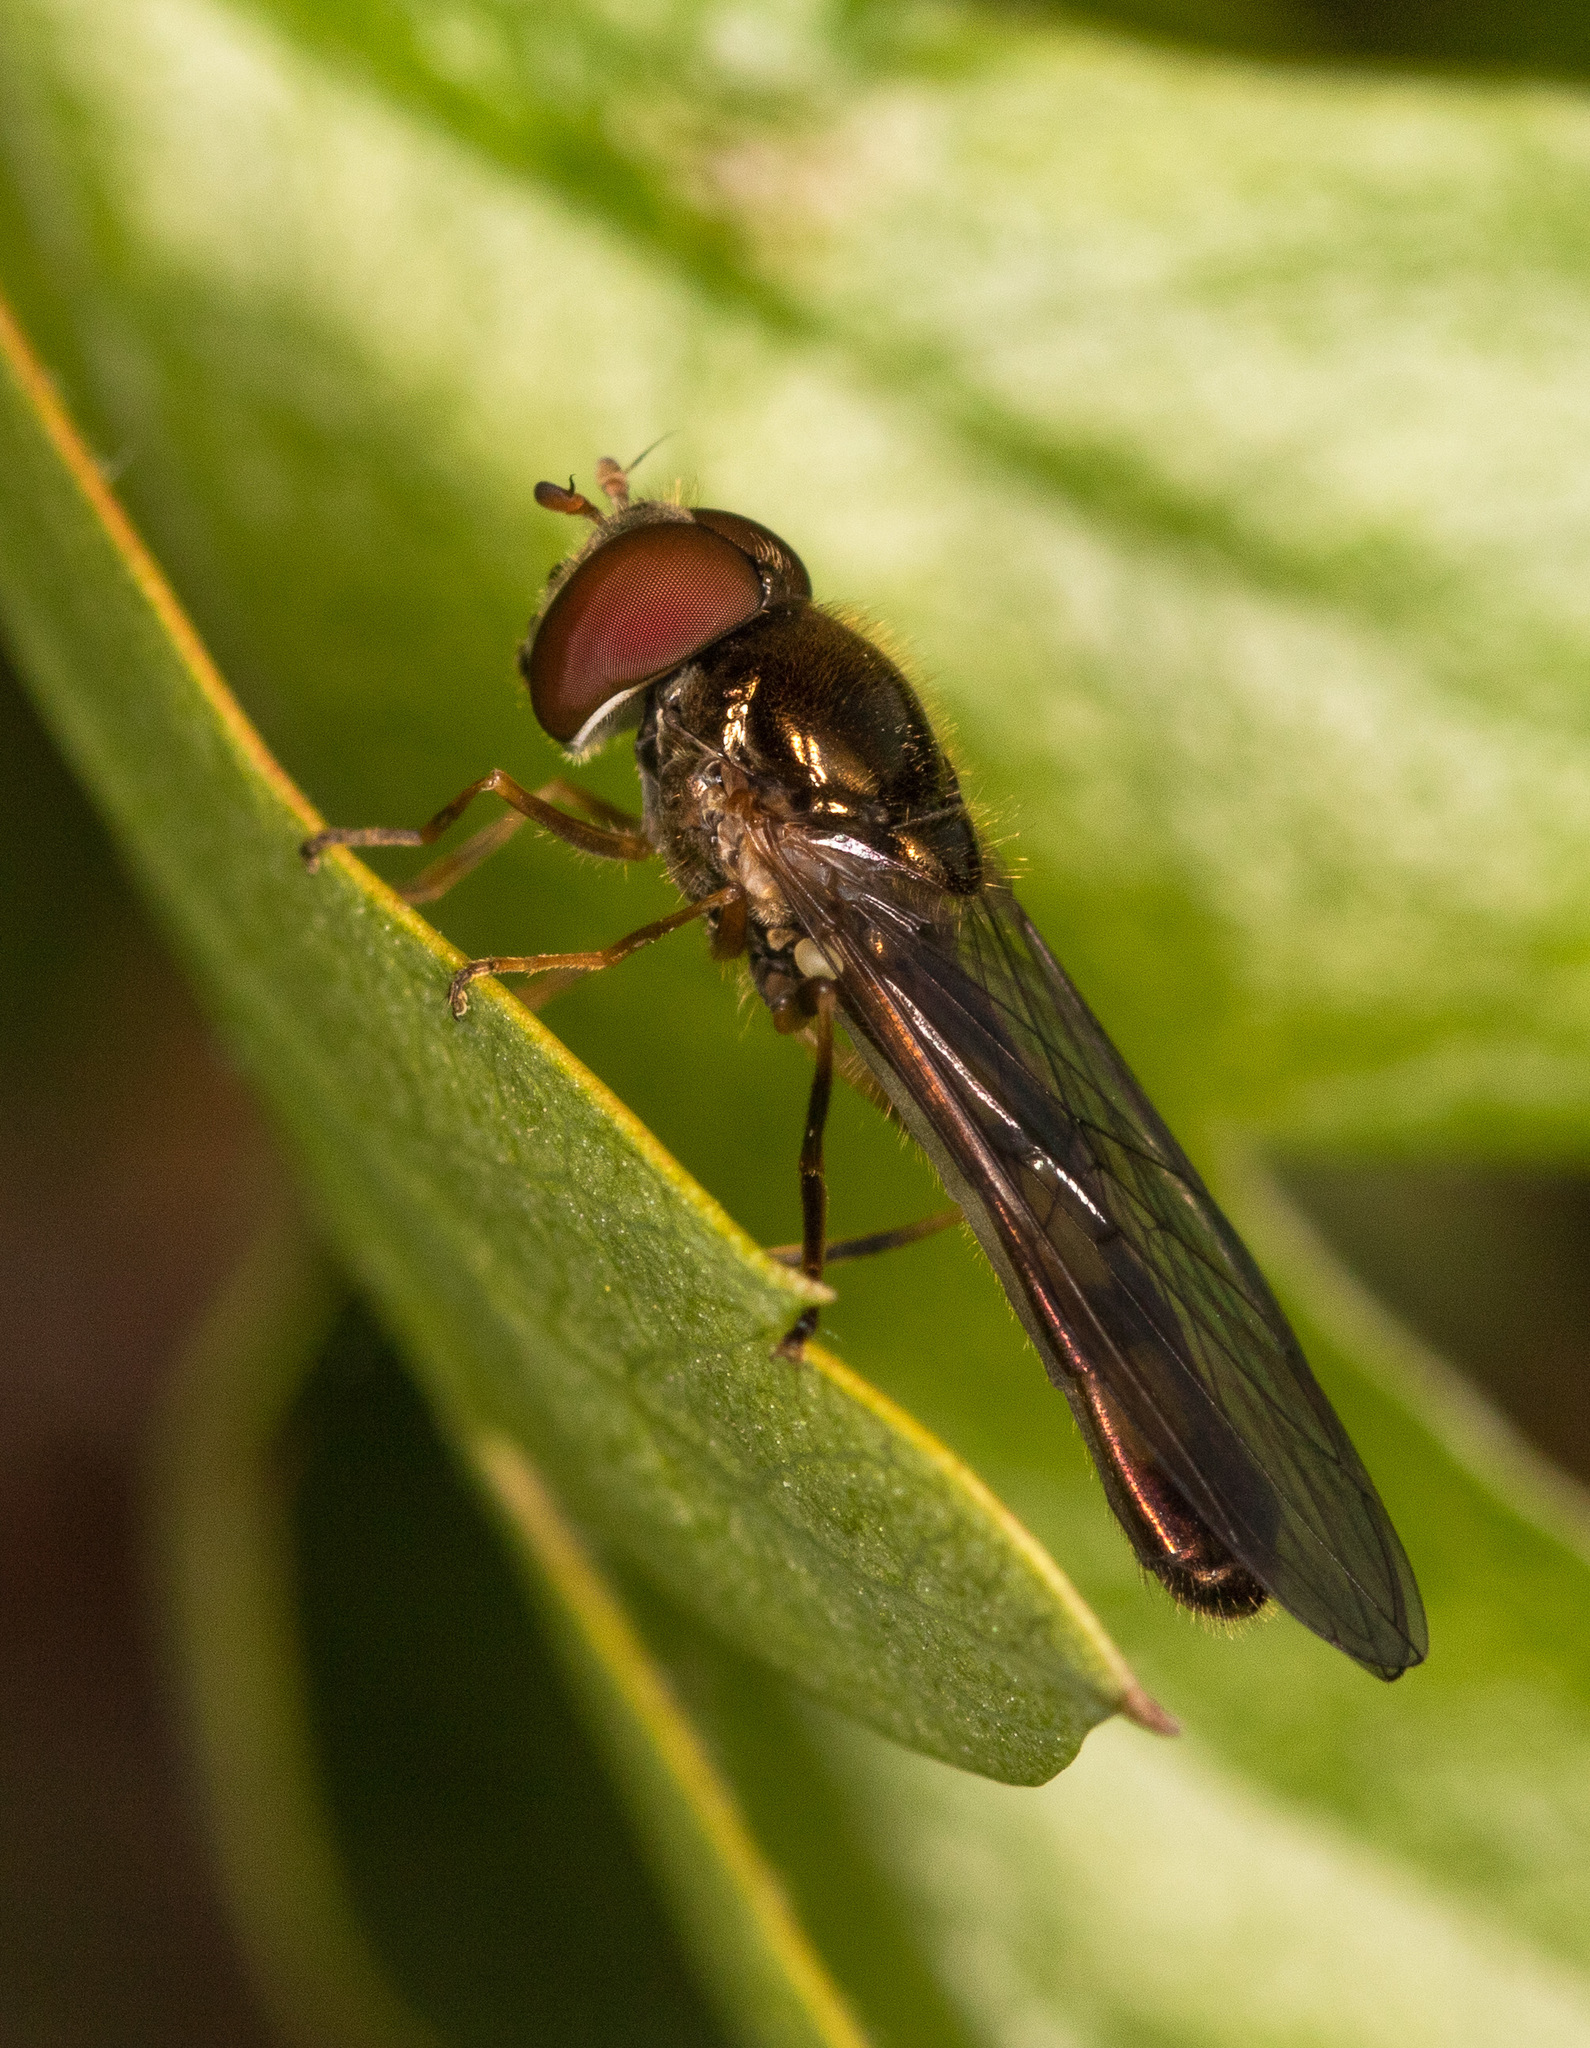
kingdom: Animalia
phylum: Arthropoda
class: Insecta
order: Diptera
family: Syrphidae
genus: Melanostoma
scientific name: Melanostoma scalare
